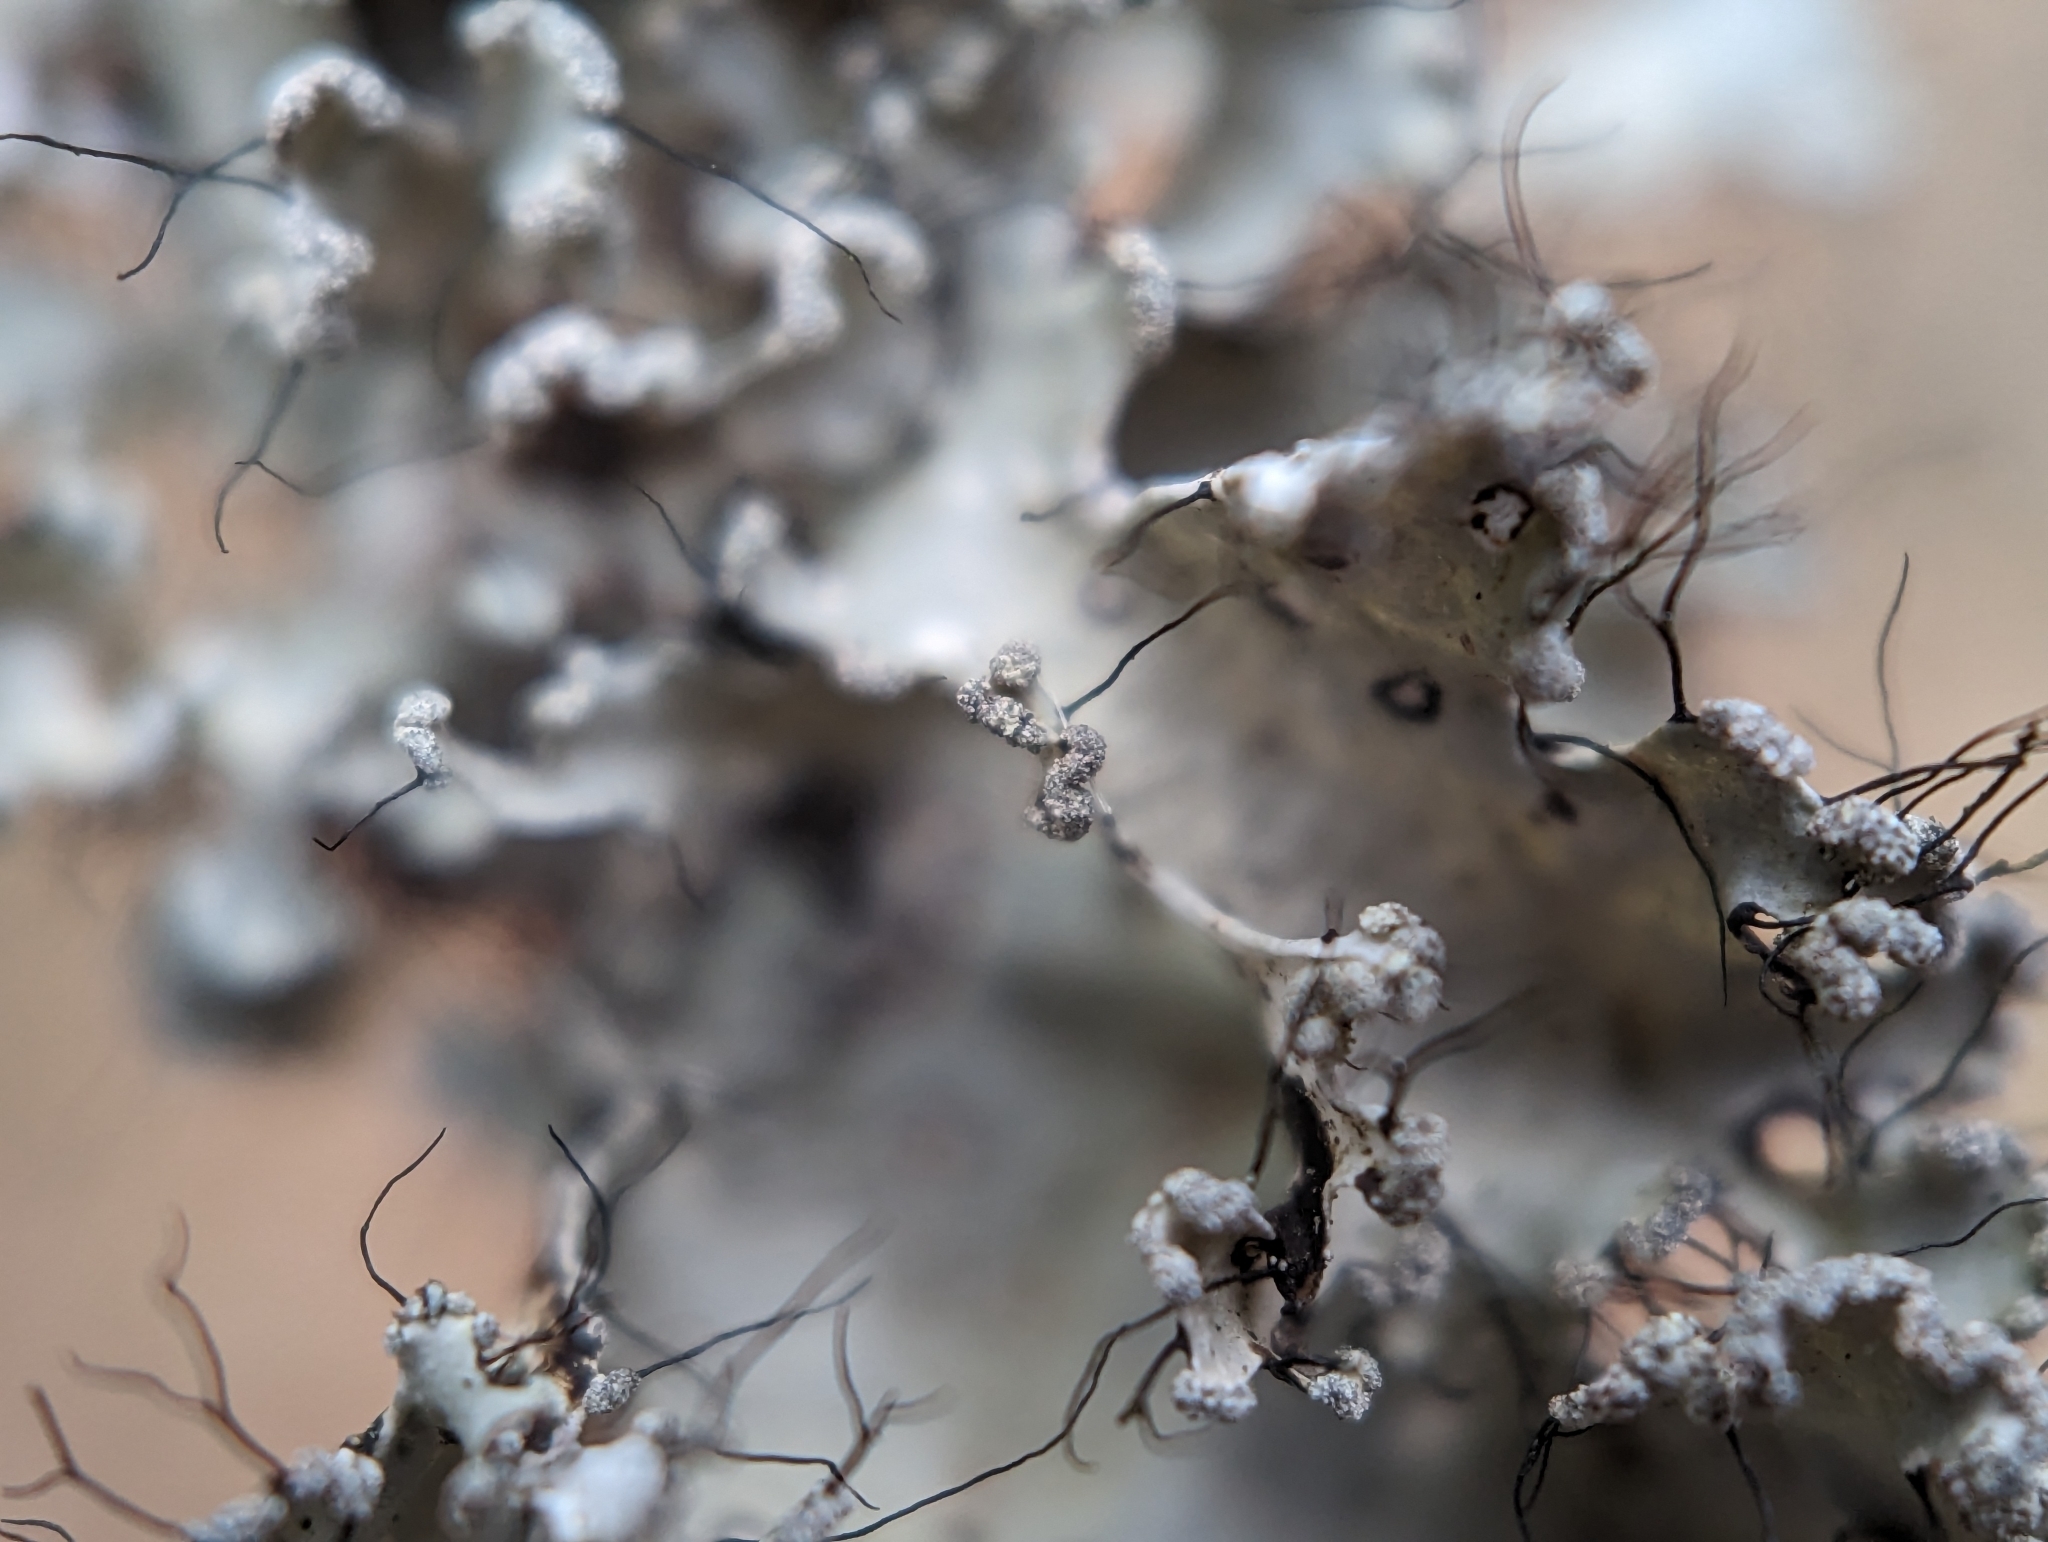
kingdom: Fungi
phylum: Ascomycota
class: Lecanoromycetes
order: Lecanorales
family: Parmeliaceae
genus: Parmotrema
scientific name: Parmotrema hypotropum
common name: Powdered ruffle lichen
